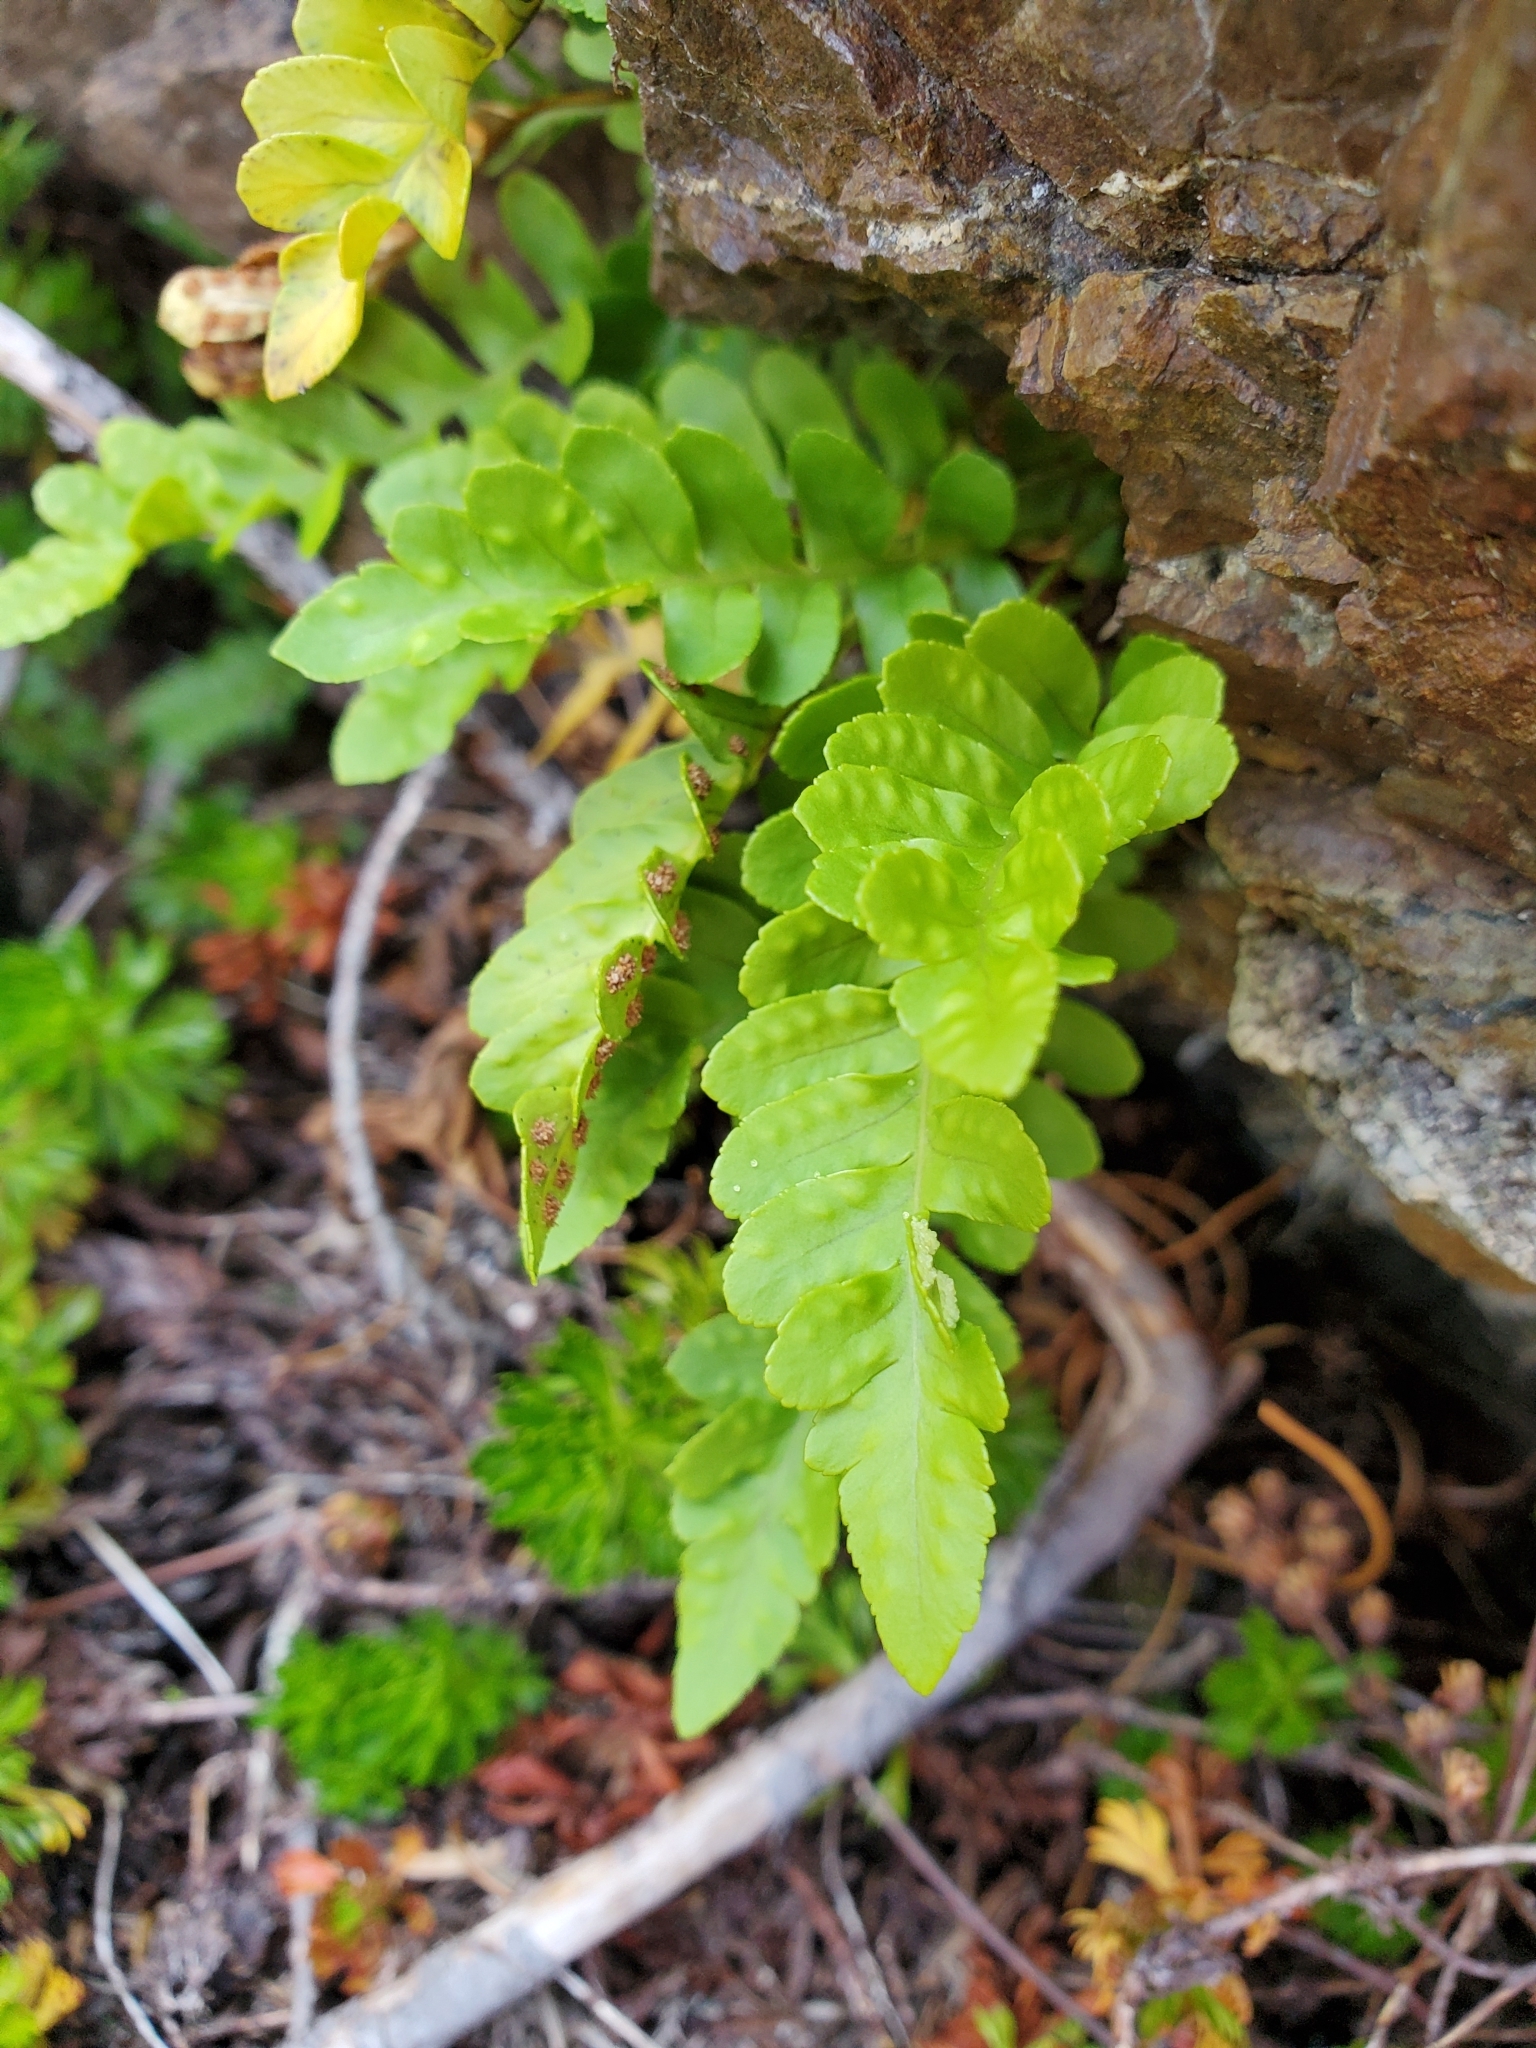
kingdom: Plantae
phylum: Tracheophyta
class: Polypodiopsida
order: Polypodiales
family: Polypodiaceae
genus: Polypodium
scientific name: Polypodium amorphum
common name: Pacific polypody
